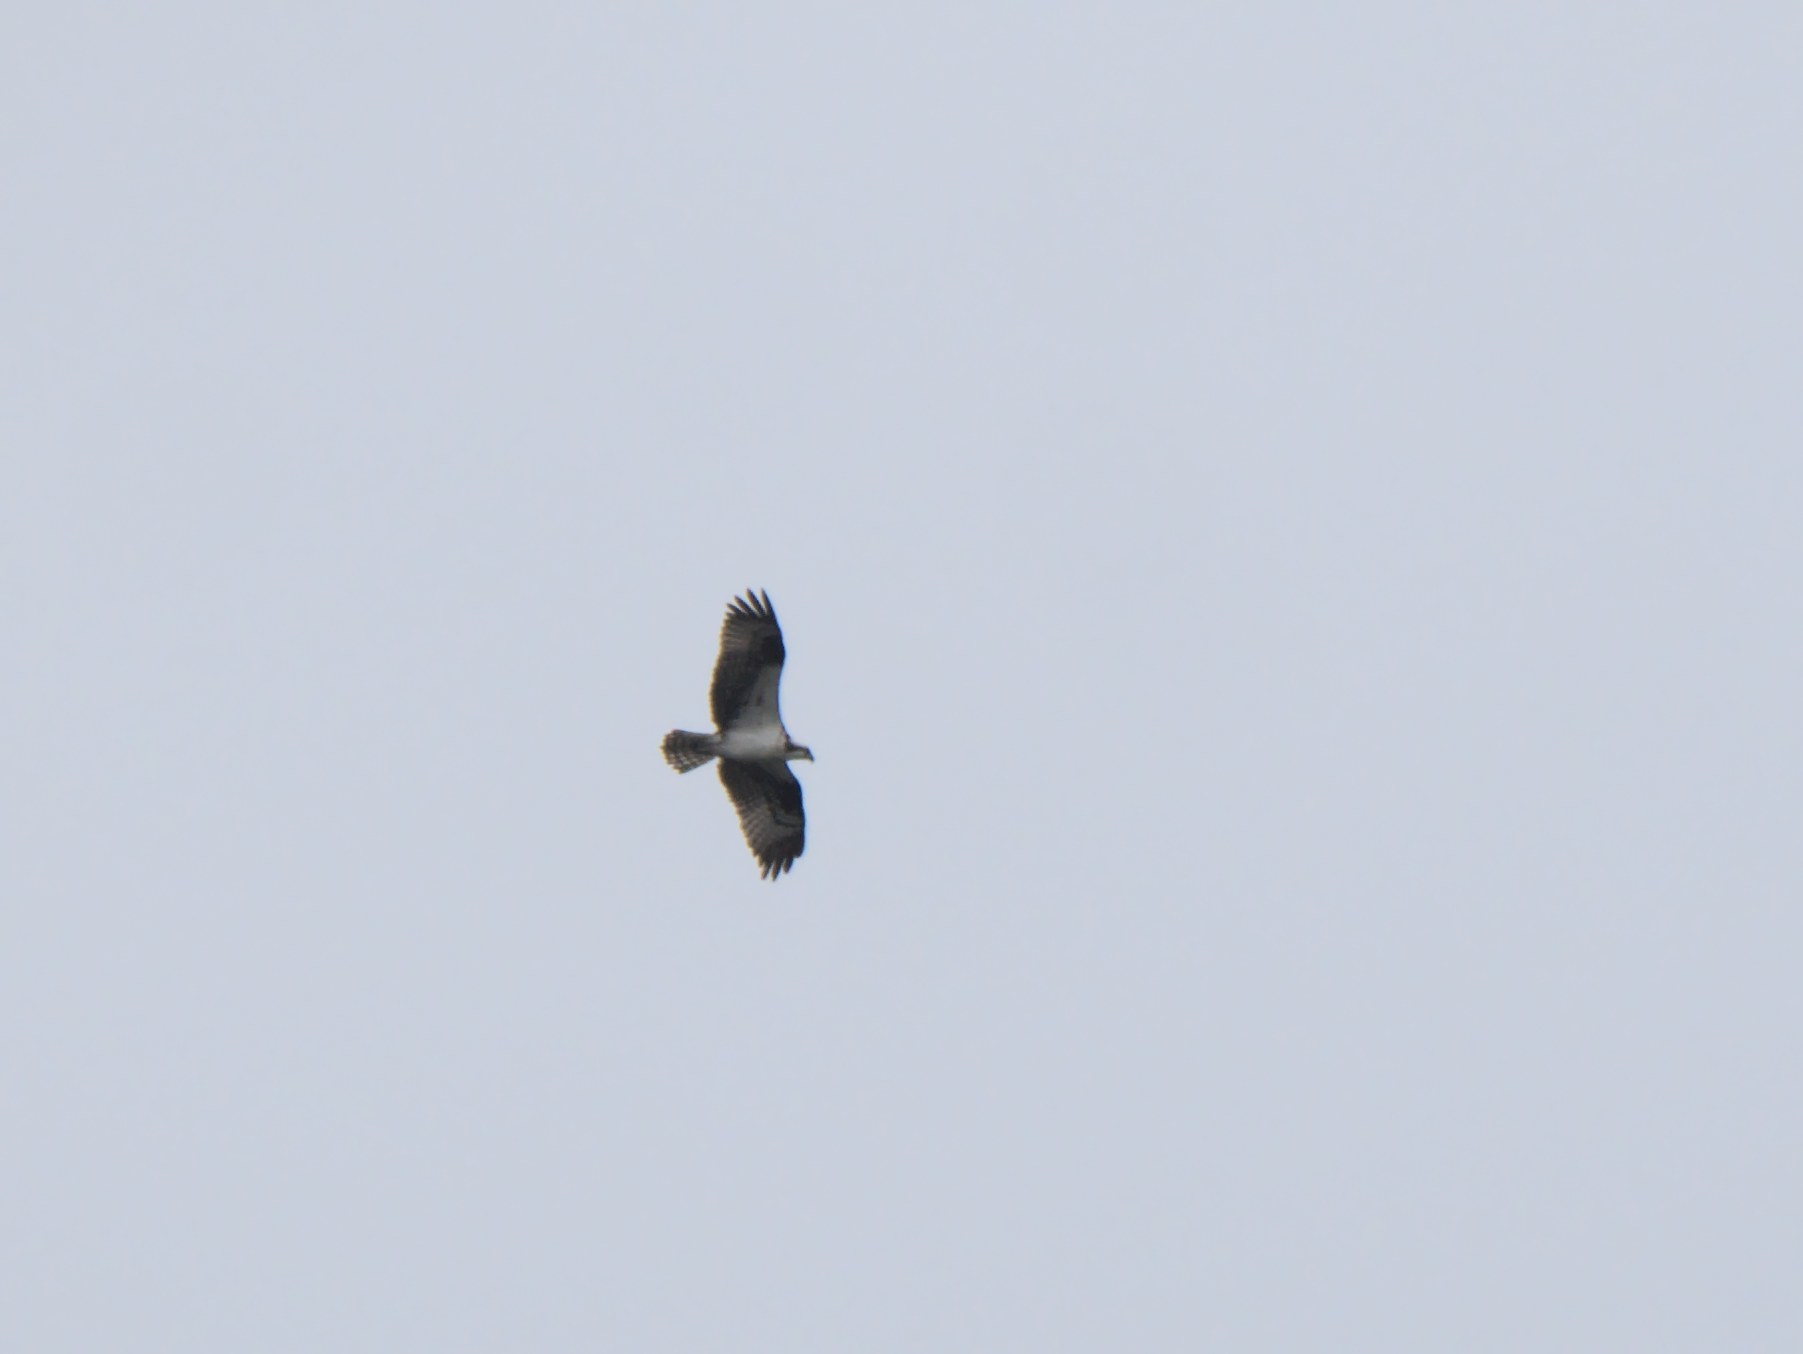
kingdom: Animalia
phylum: Chordata
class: Aves
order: Accipitriformes
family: Pandionidae
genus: Pandion
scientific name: Pandion haliaetus
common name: Osprey
